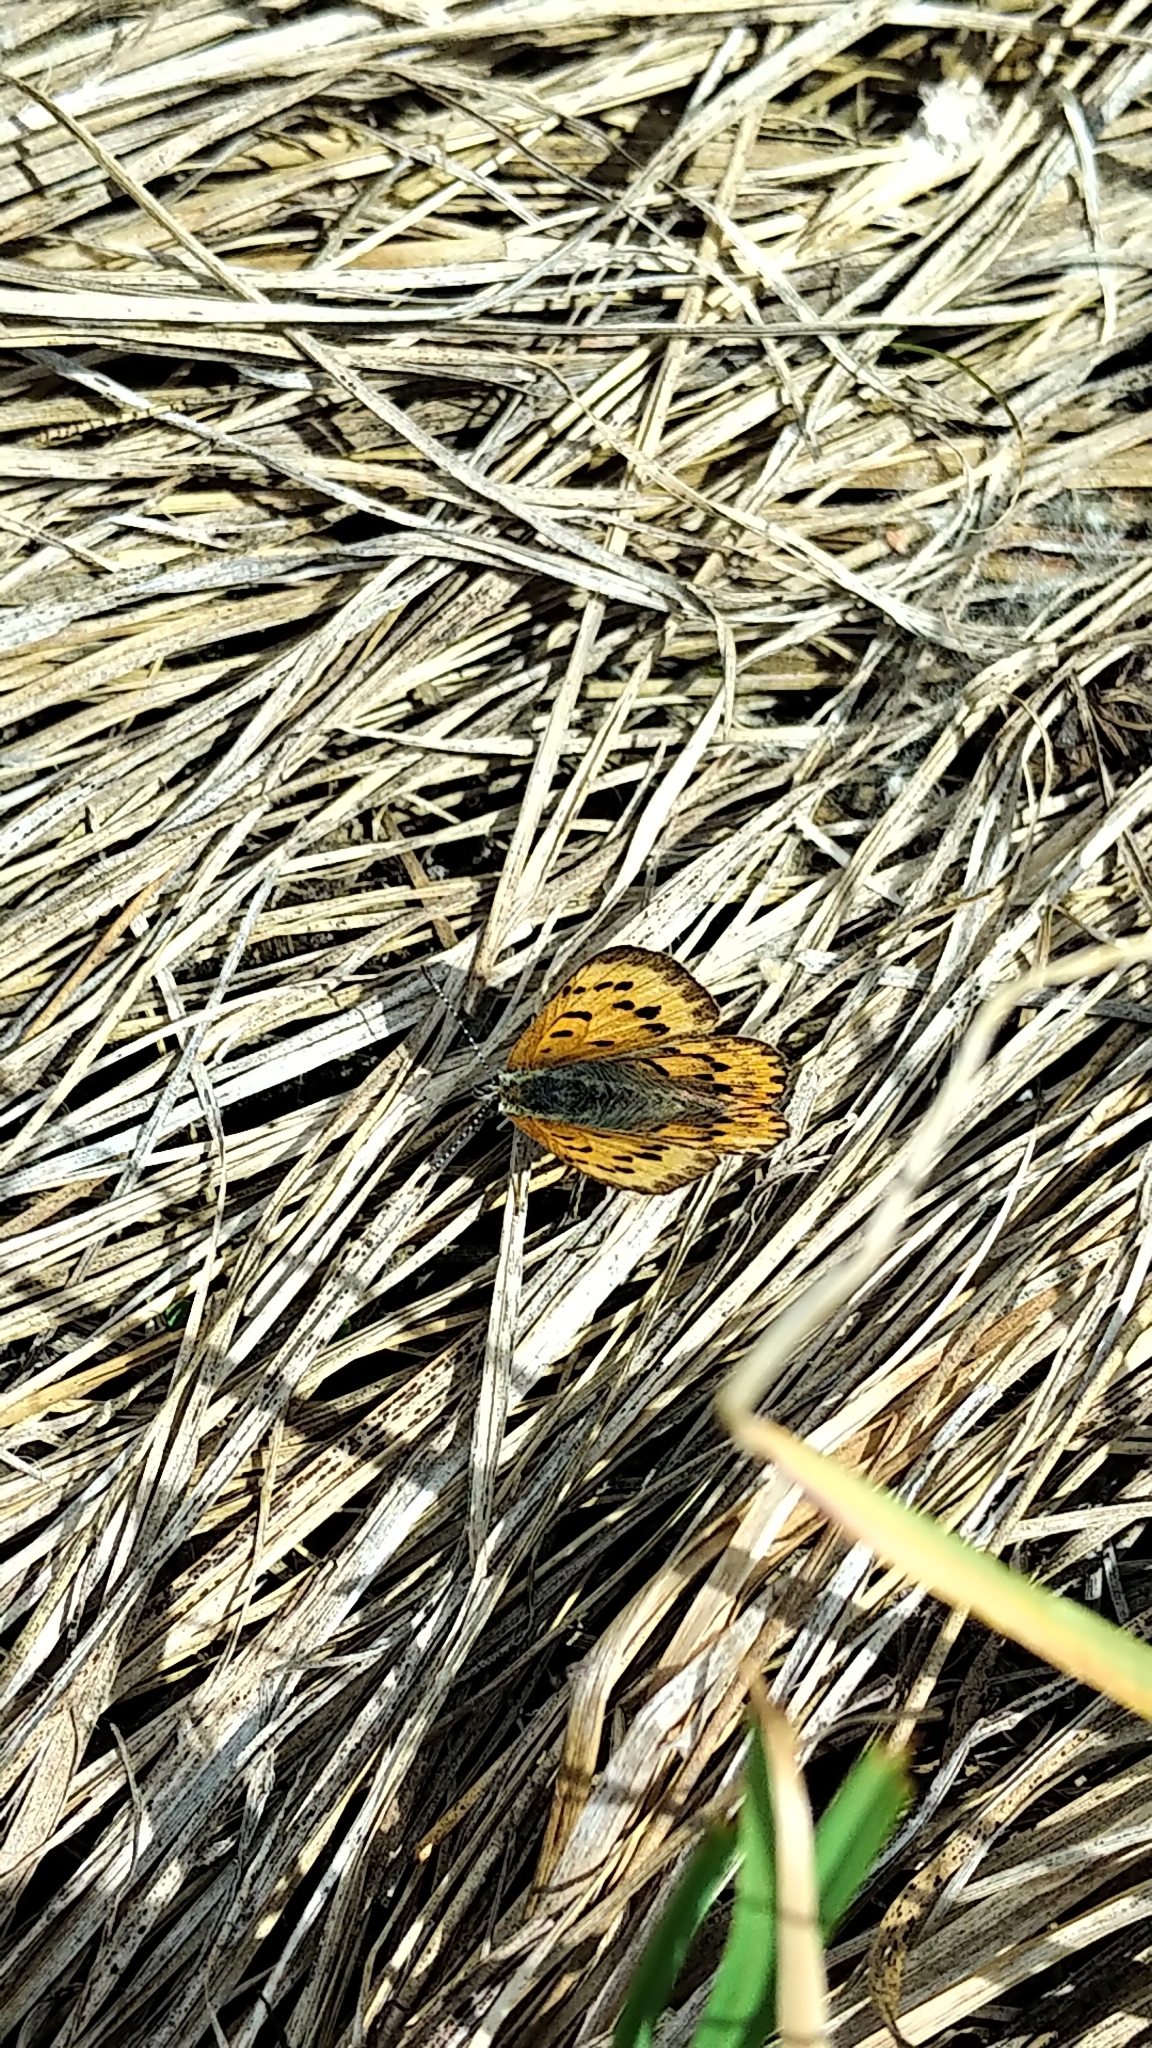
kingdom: Animalia
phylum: Arthropoda
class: Insecta
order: Lepidoptera
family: Lycaenidae
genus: Tharsalea
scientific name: Tharsalea helloides
